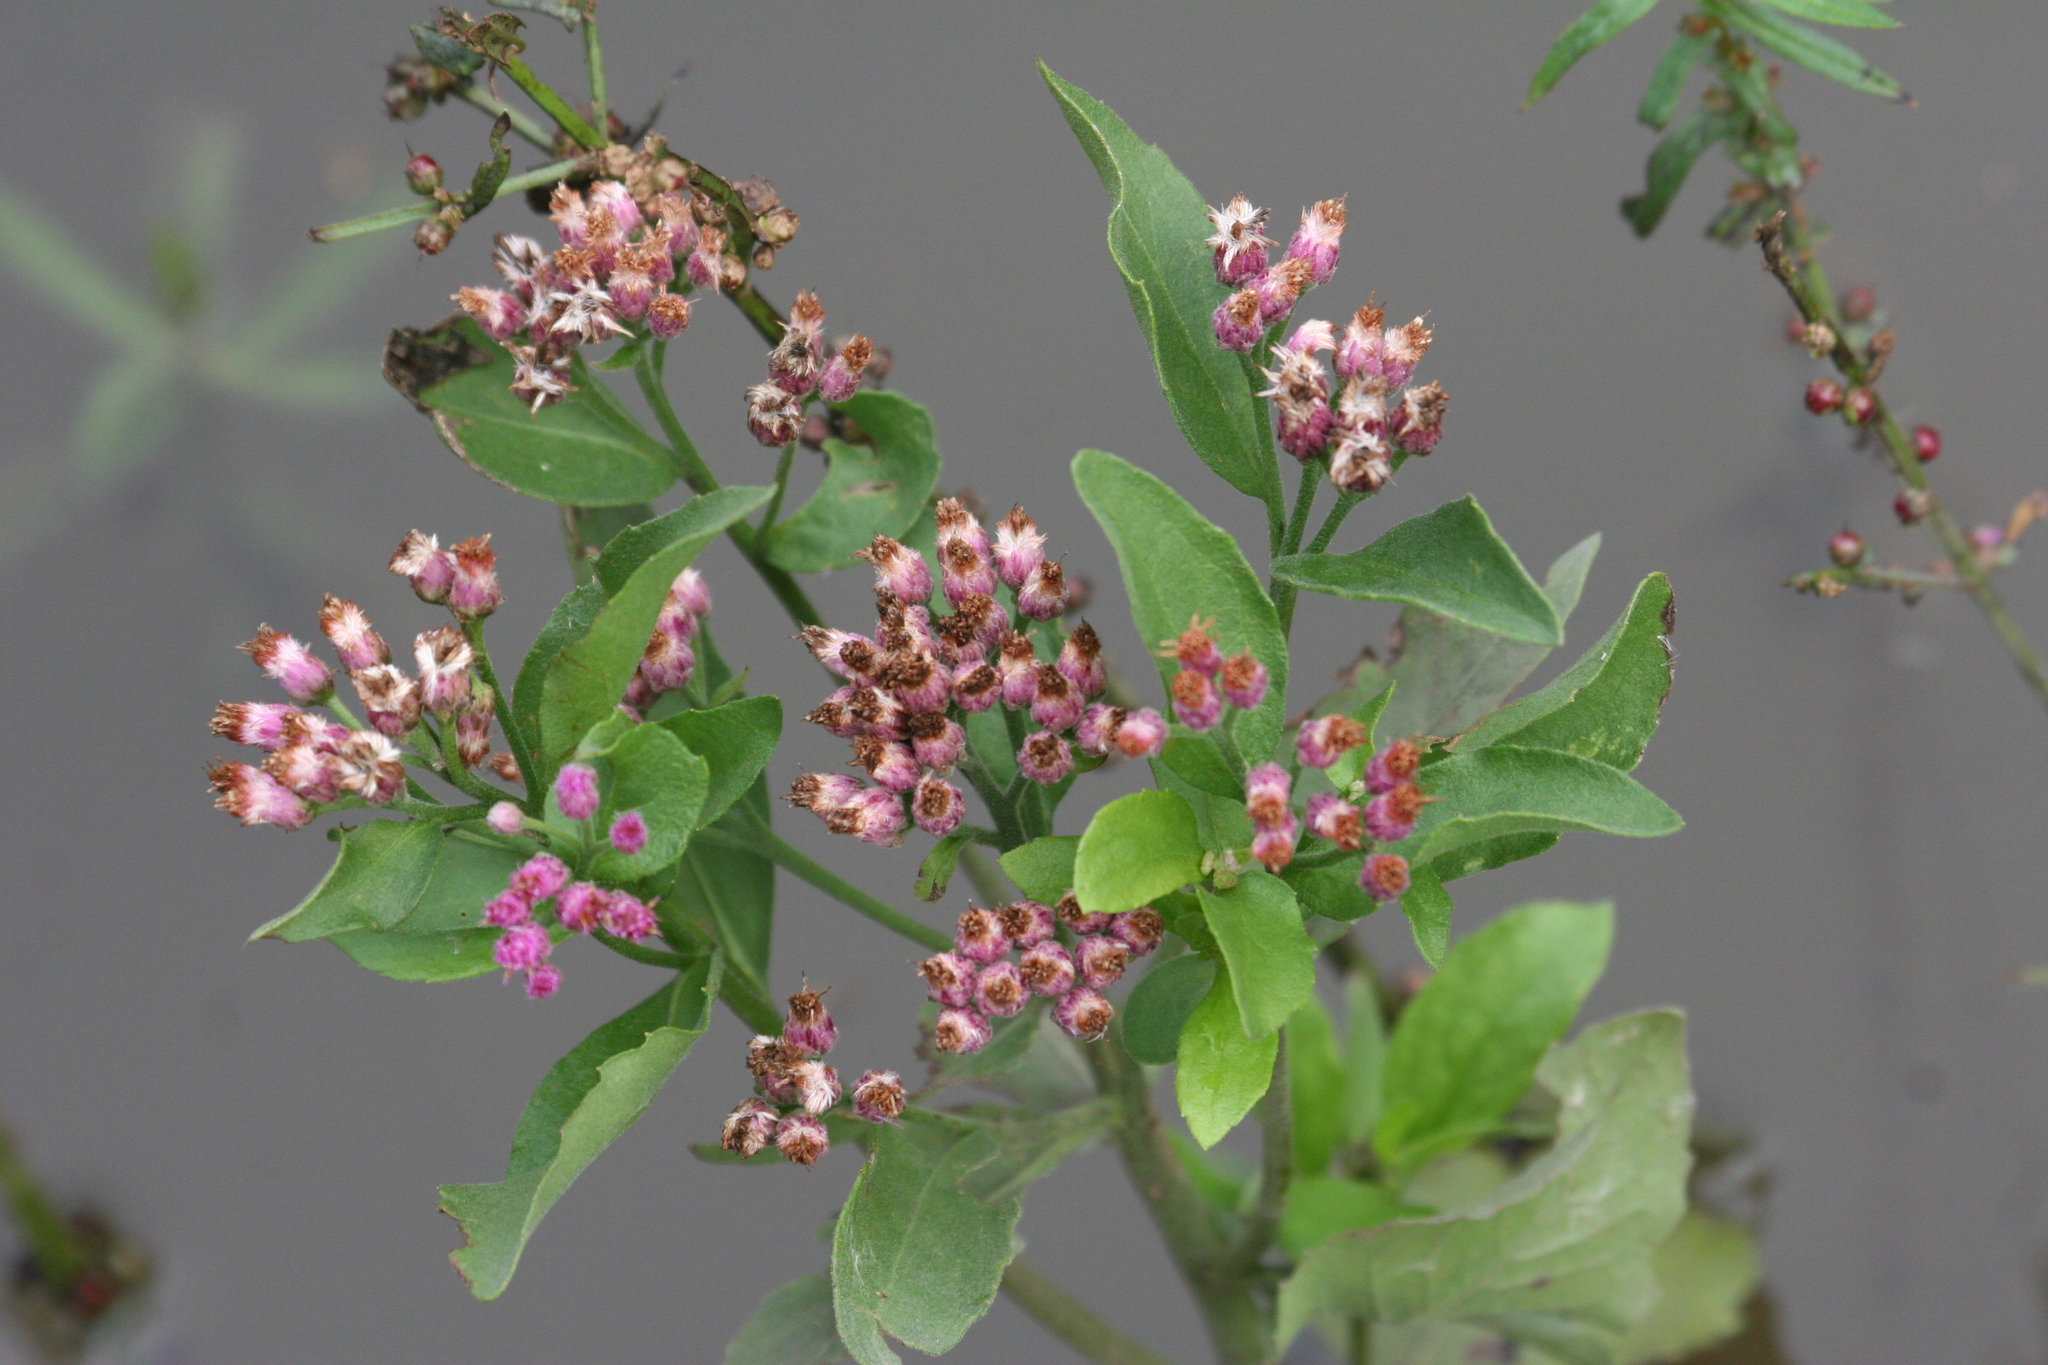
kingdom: Plantae
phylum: Tracheophyta
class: Magnoliopsida
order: Asterales
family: Asteraceae
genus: Pluchea
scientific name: Pluchea odorata
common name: Saltmarsh fleabane
